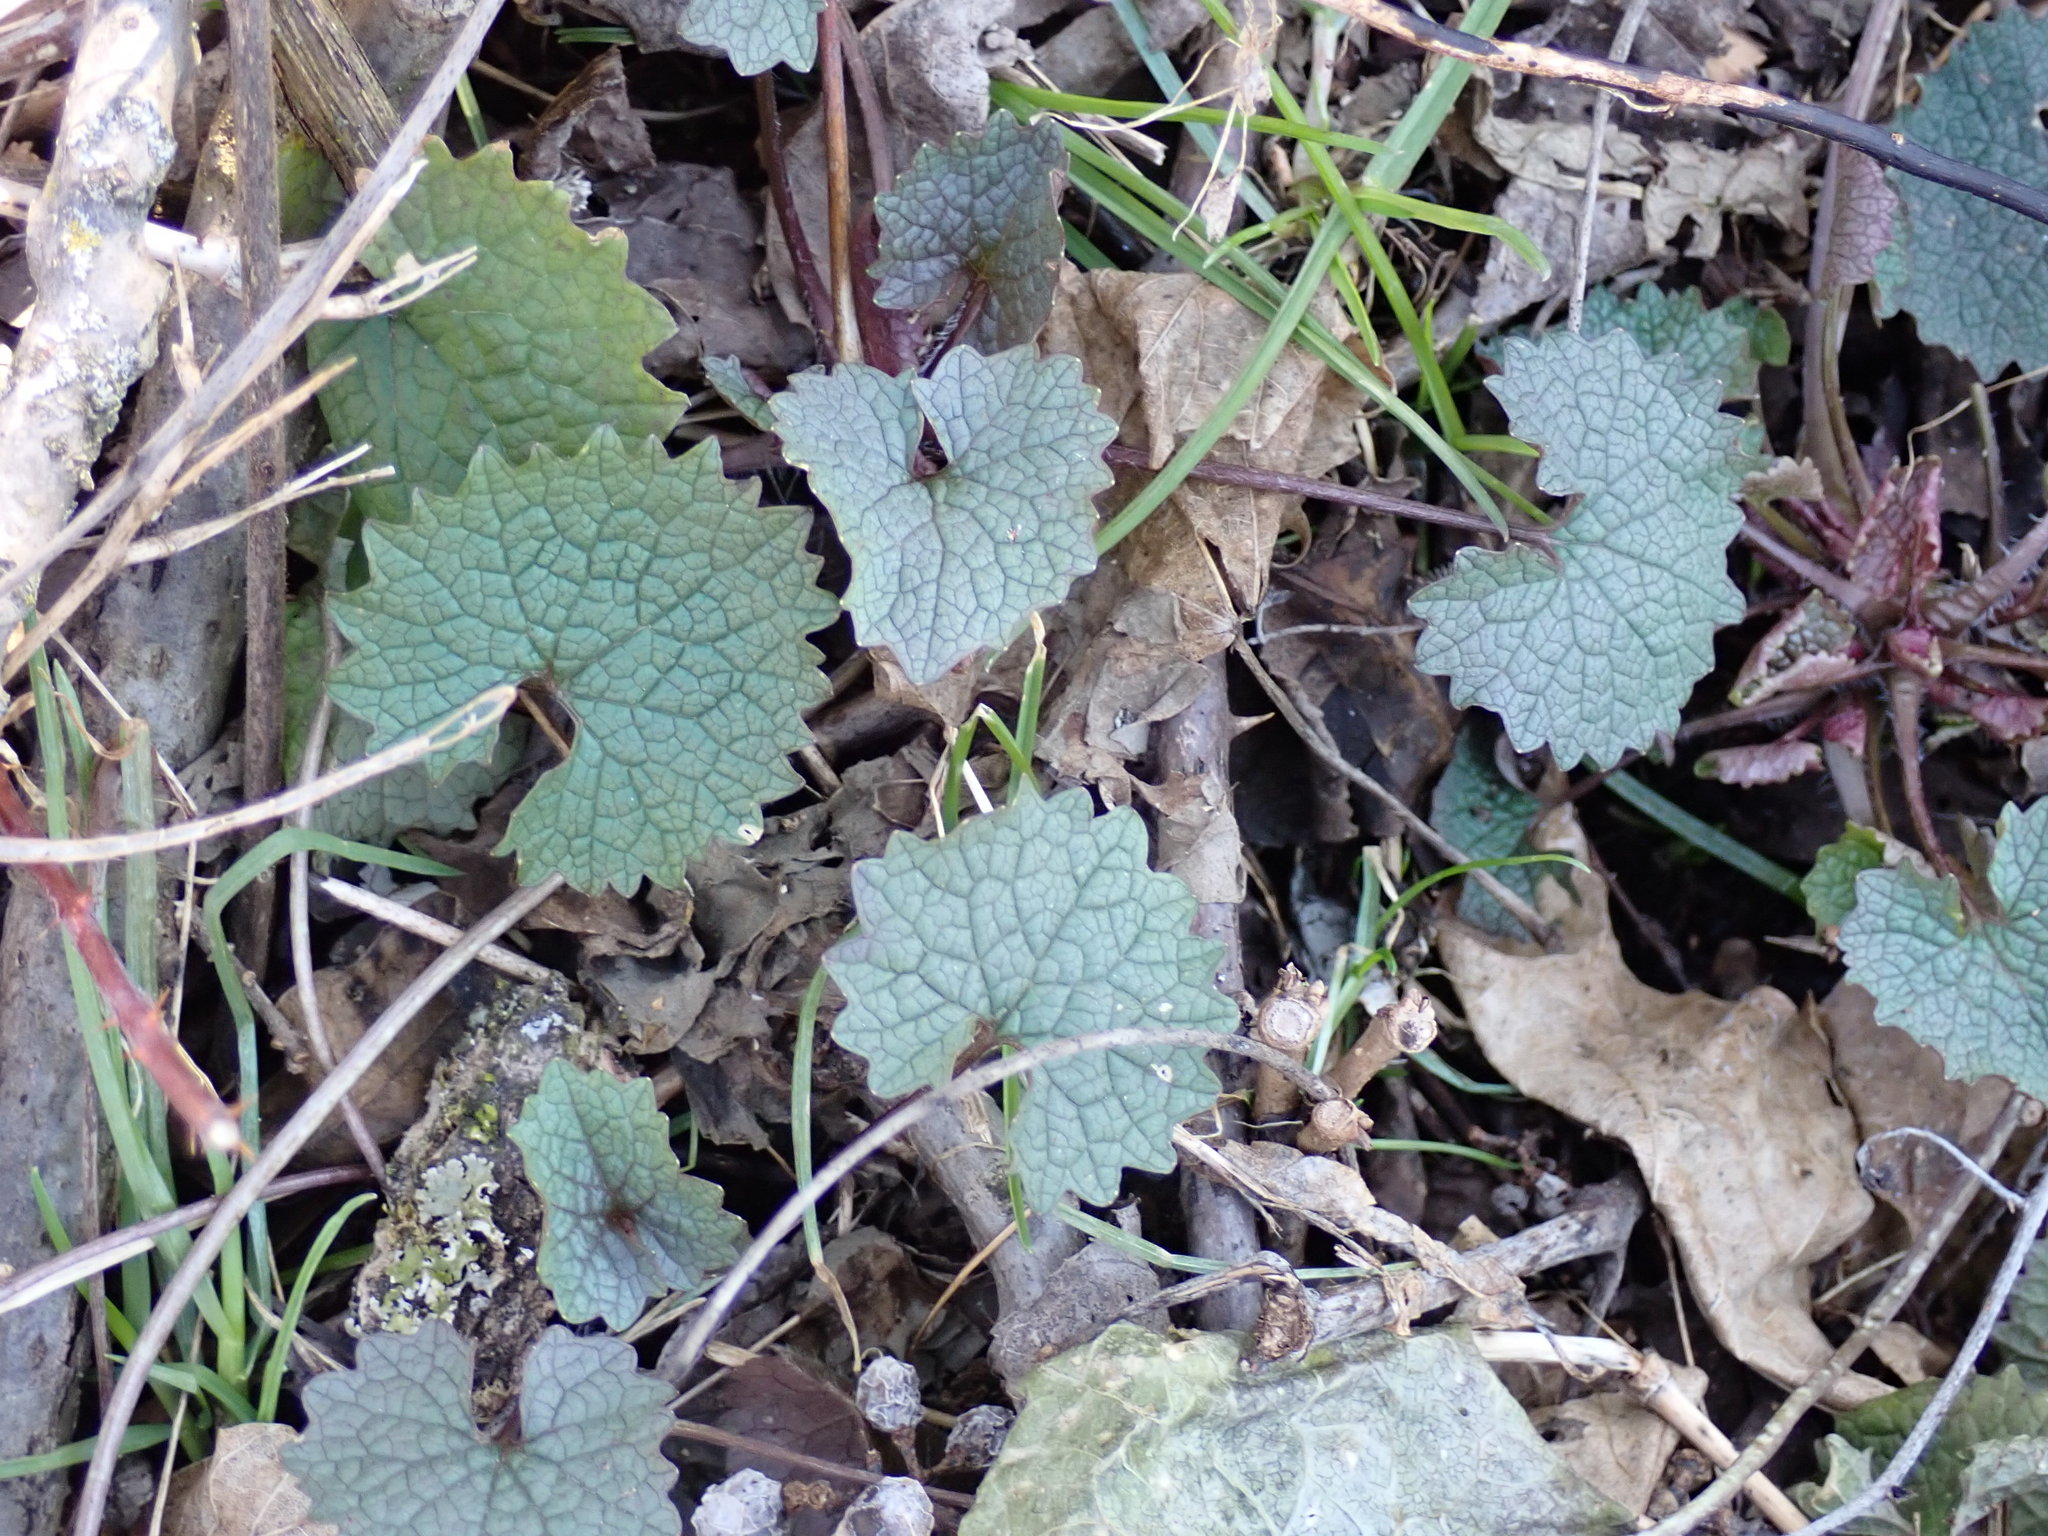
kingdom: Plantae
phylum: Tracheophyta
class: Magnoliopsida
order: Brassicales
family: Brassicaceae
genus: Alliaria
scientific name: Alliaria petiolata
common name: Garlic mustard
